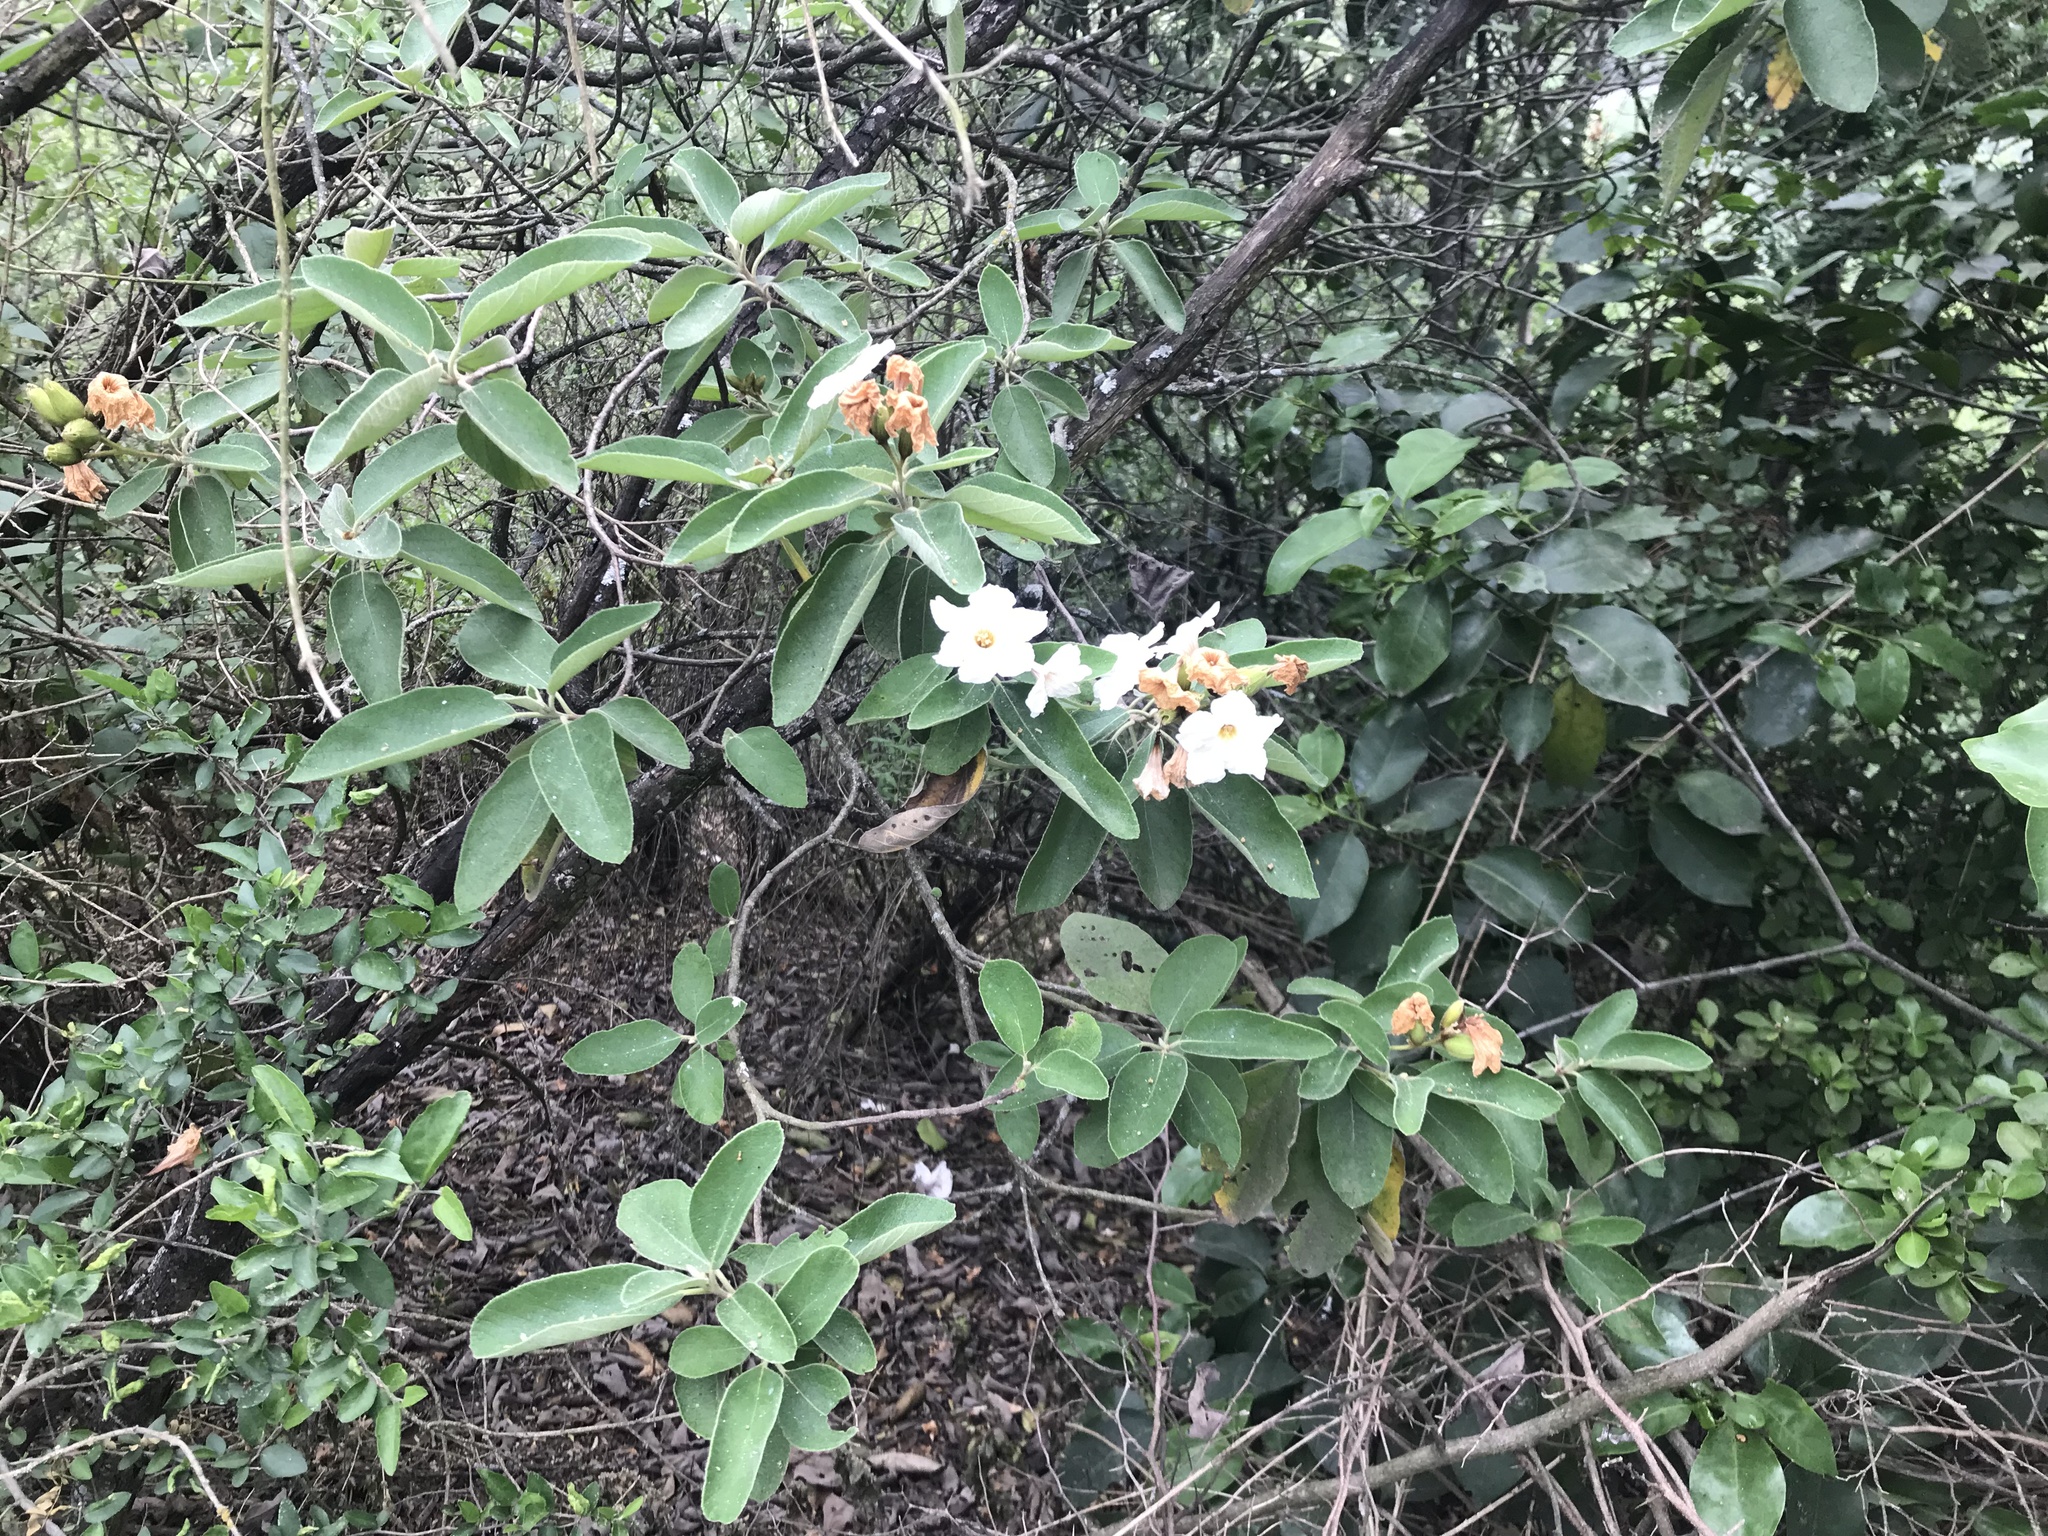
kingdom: Plantae
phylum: Tracheophyta
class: Magnoliopsida
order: Boraginales
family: Cordiaceae
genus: Cordia
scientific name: Cordia boissieri
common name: Mexican-olive
